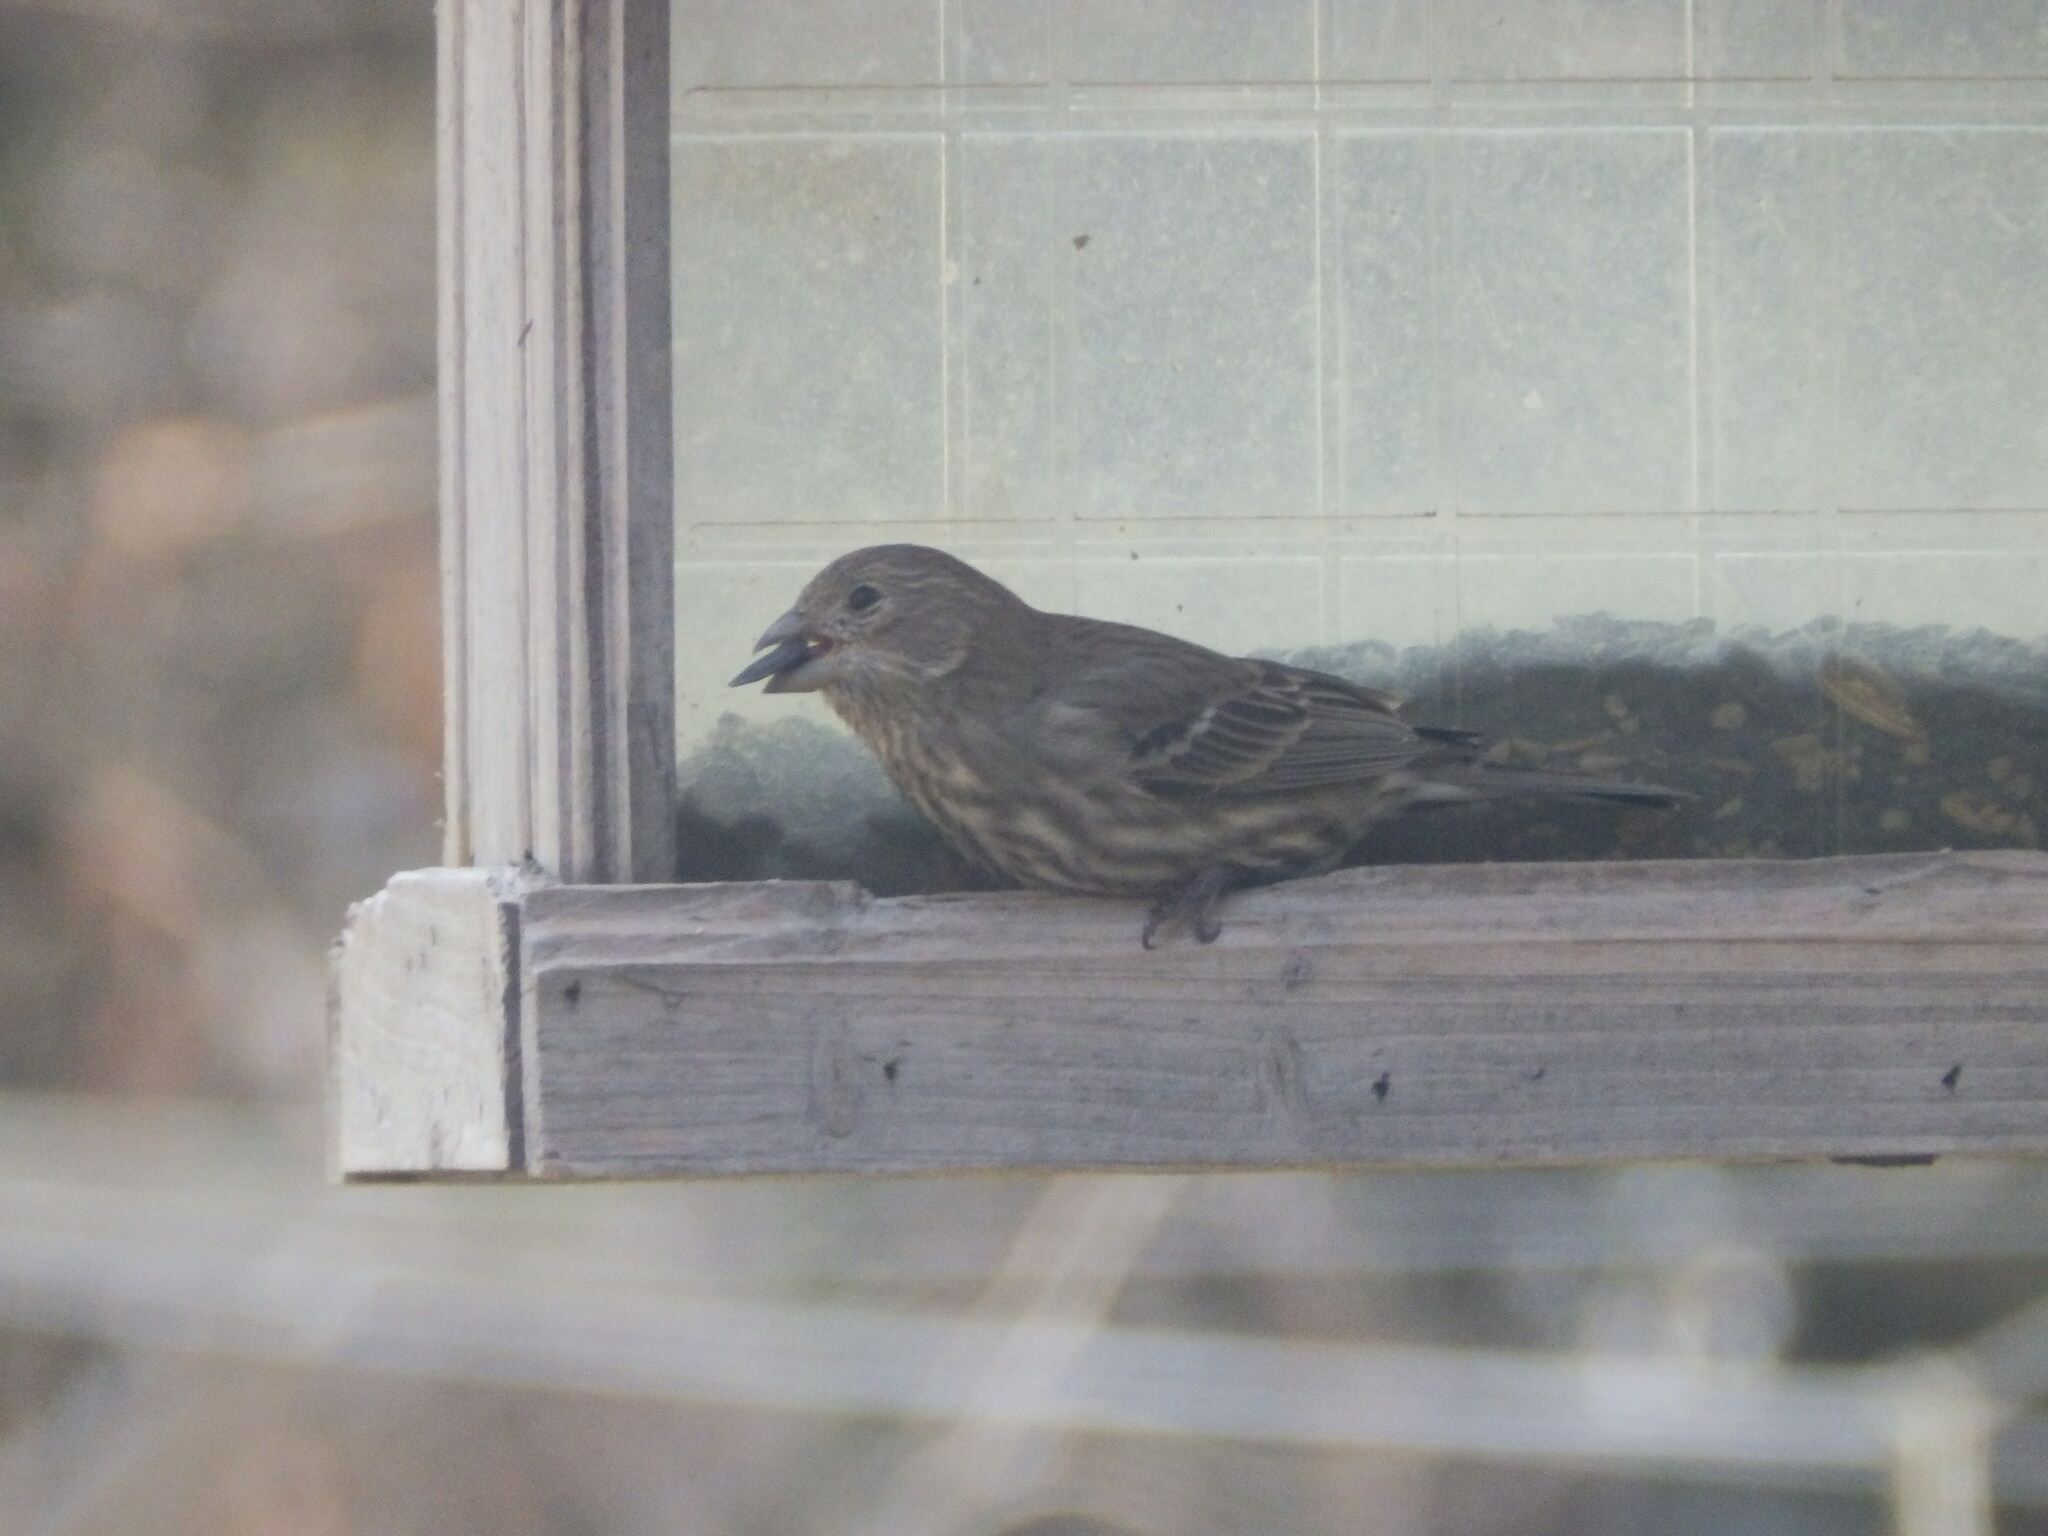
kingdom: Animalia
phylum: Chordata
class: Aves
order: Passeriformes
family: Fringillidae
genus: Haemorhous
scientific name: Haemorhous mexicanus
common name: House finch
